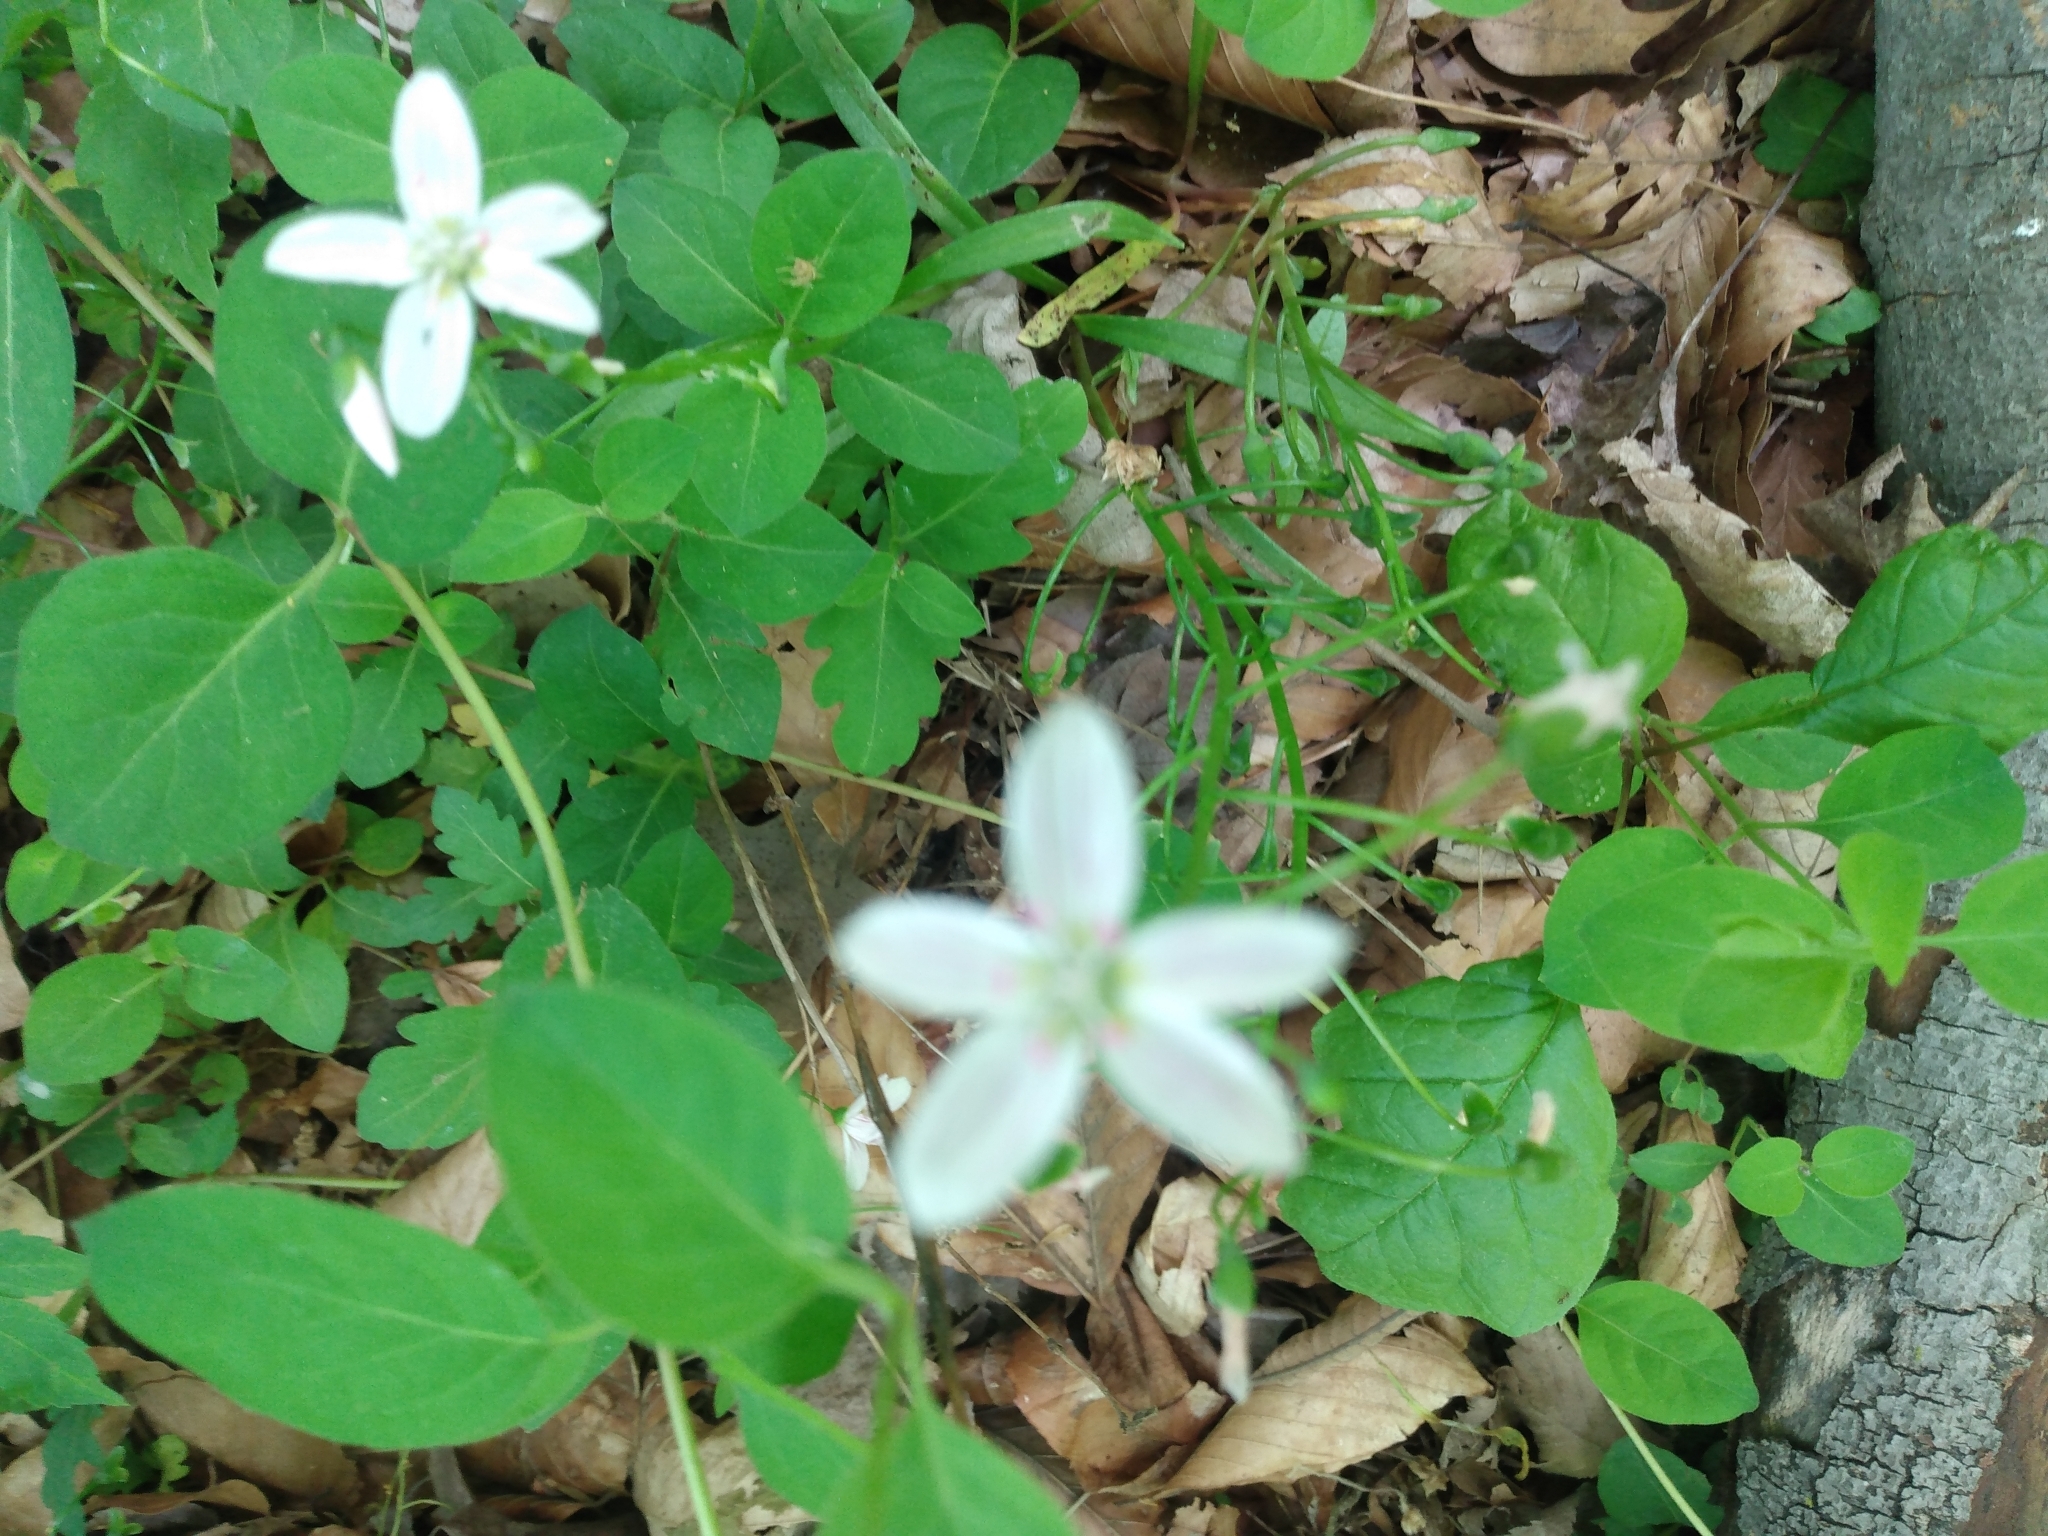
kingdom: Plantae
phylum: Tracheophyta
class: Magnoliopsida
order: Caryophyllales
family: Montiaceae
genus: Claytonia
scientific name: Claytonia virginica
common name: Virginia springbeauty
